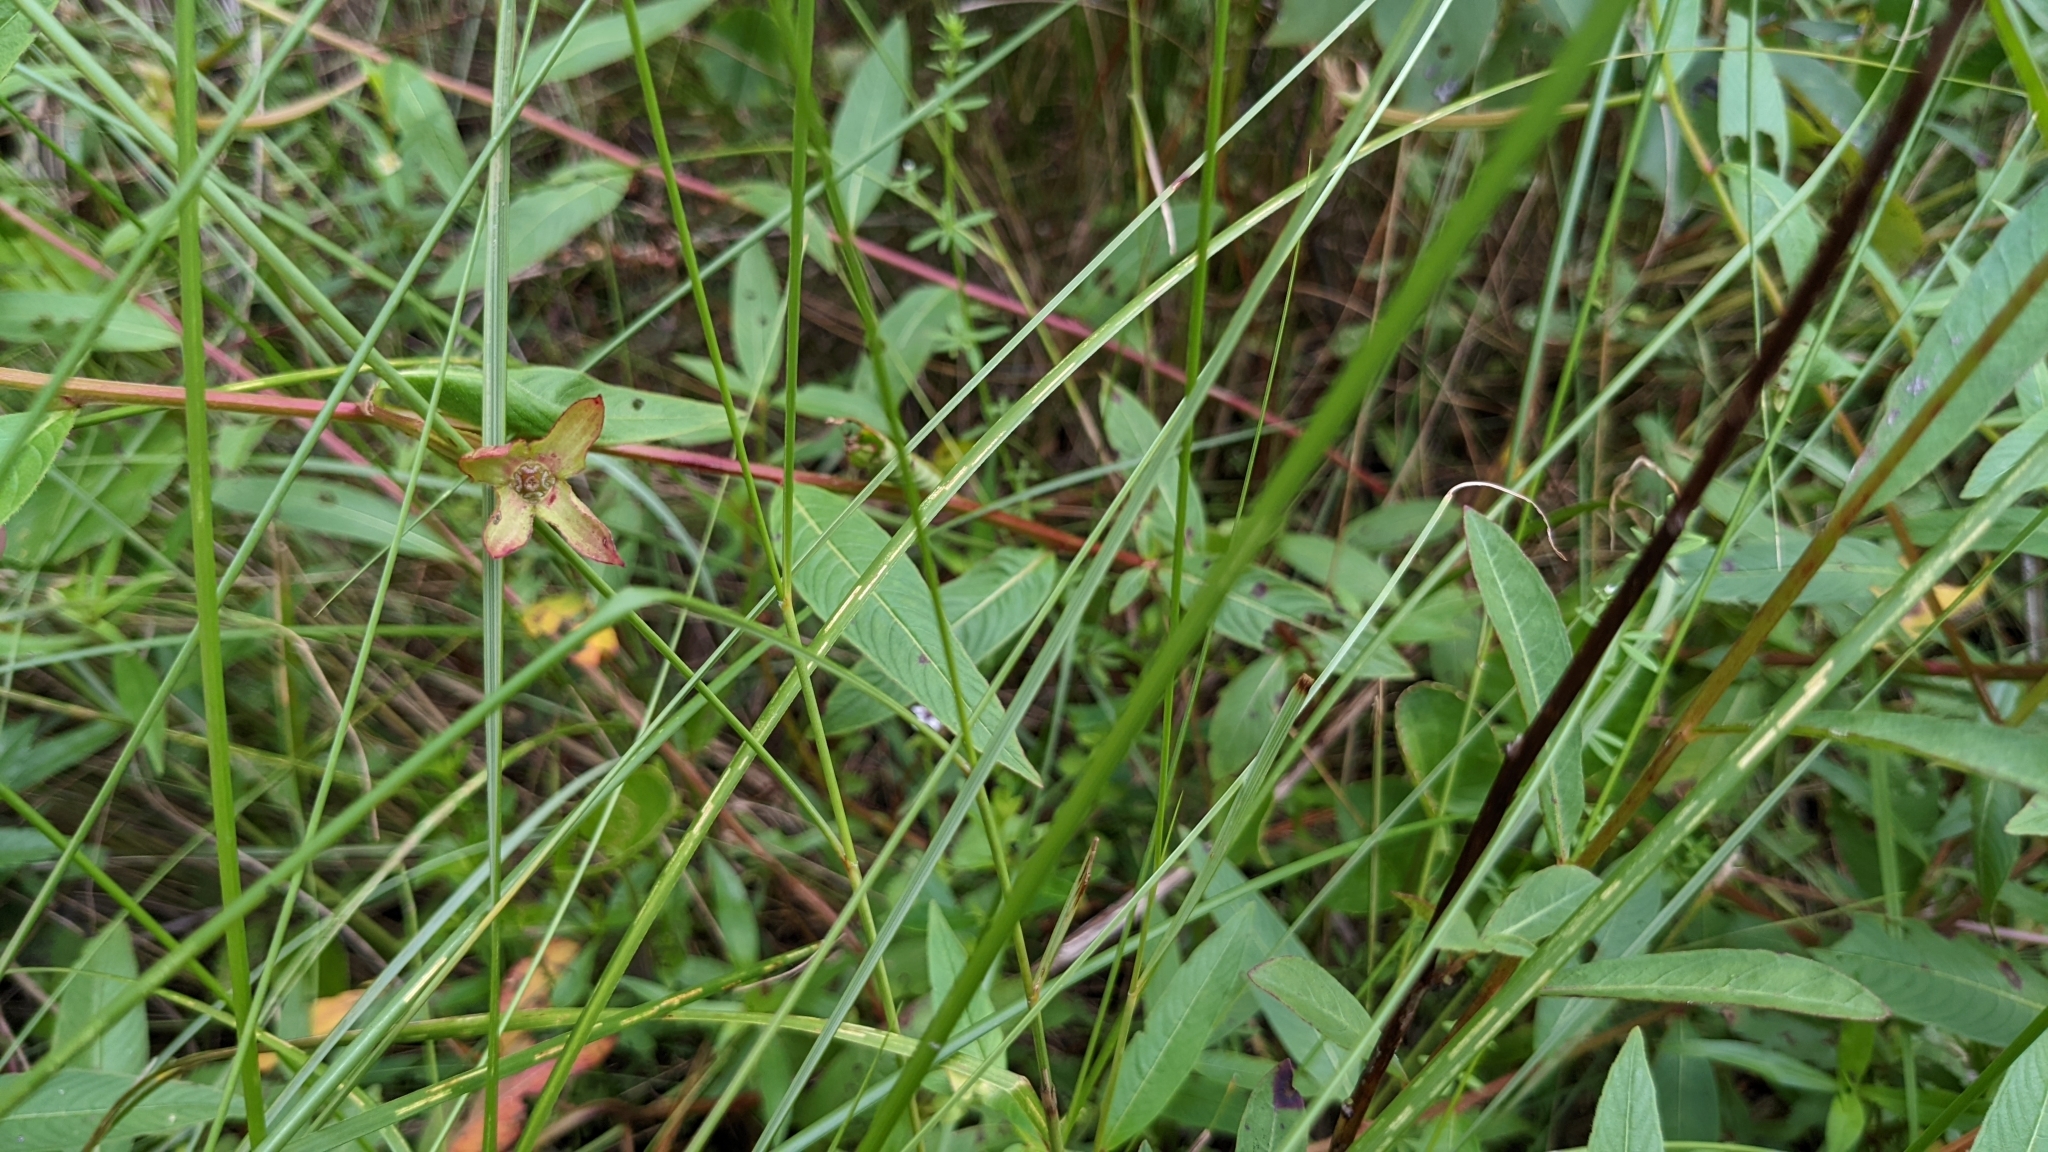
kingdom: Plantae
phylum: Tracheophyta
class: Magnoliopsida
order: Myrtales
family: Onagraceae
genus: Ludwigia
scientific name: Ludwigia octovalvis
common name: Water-primrose
